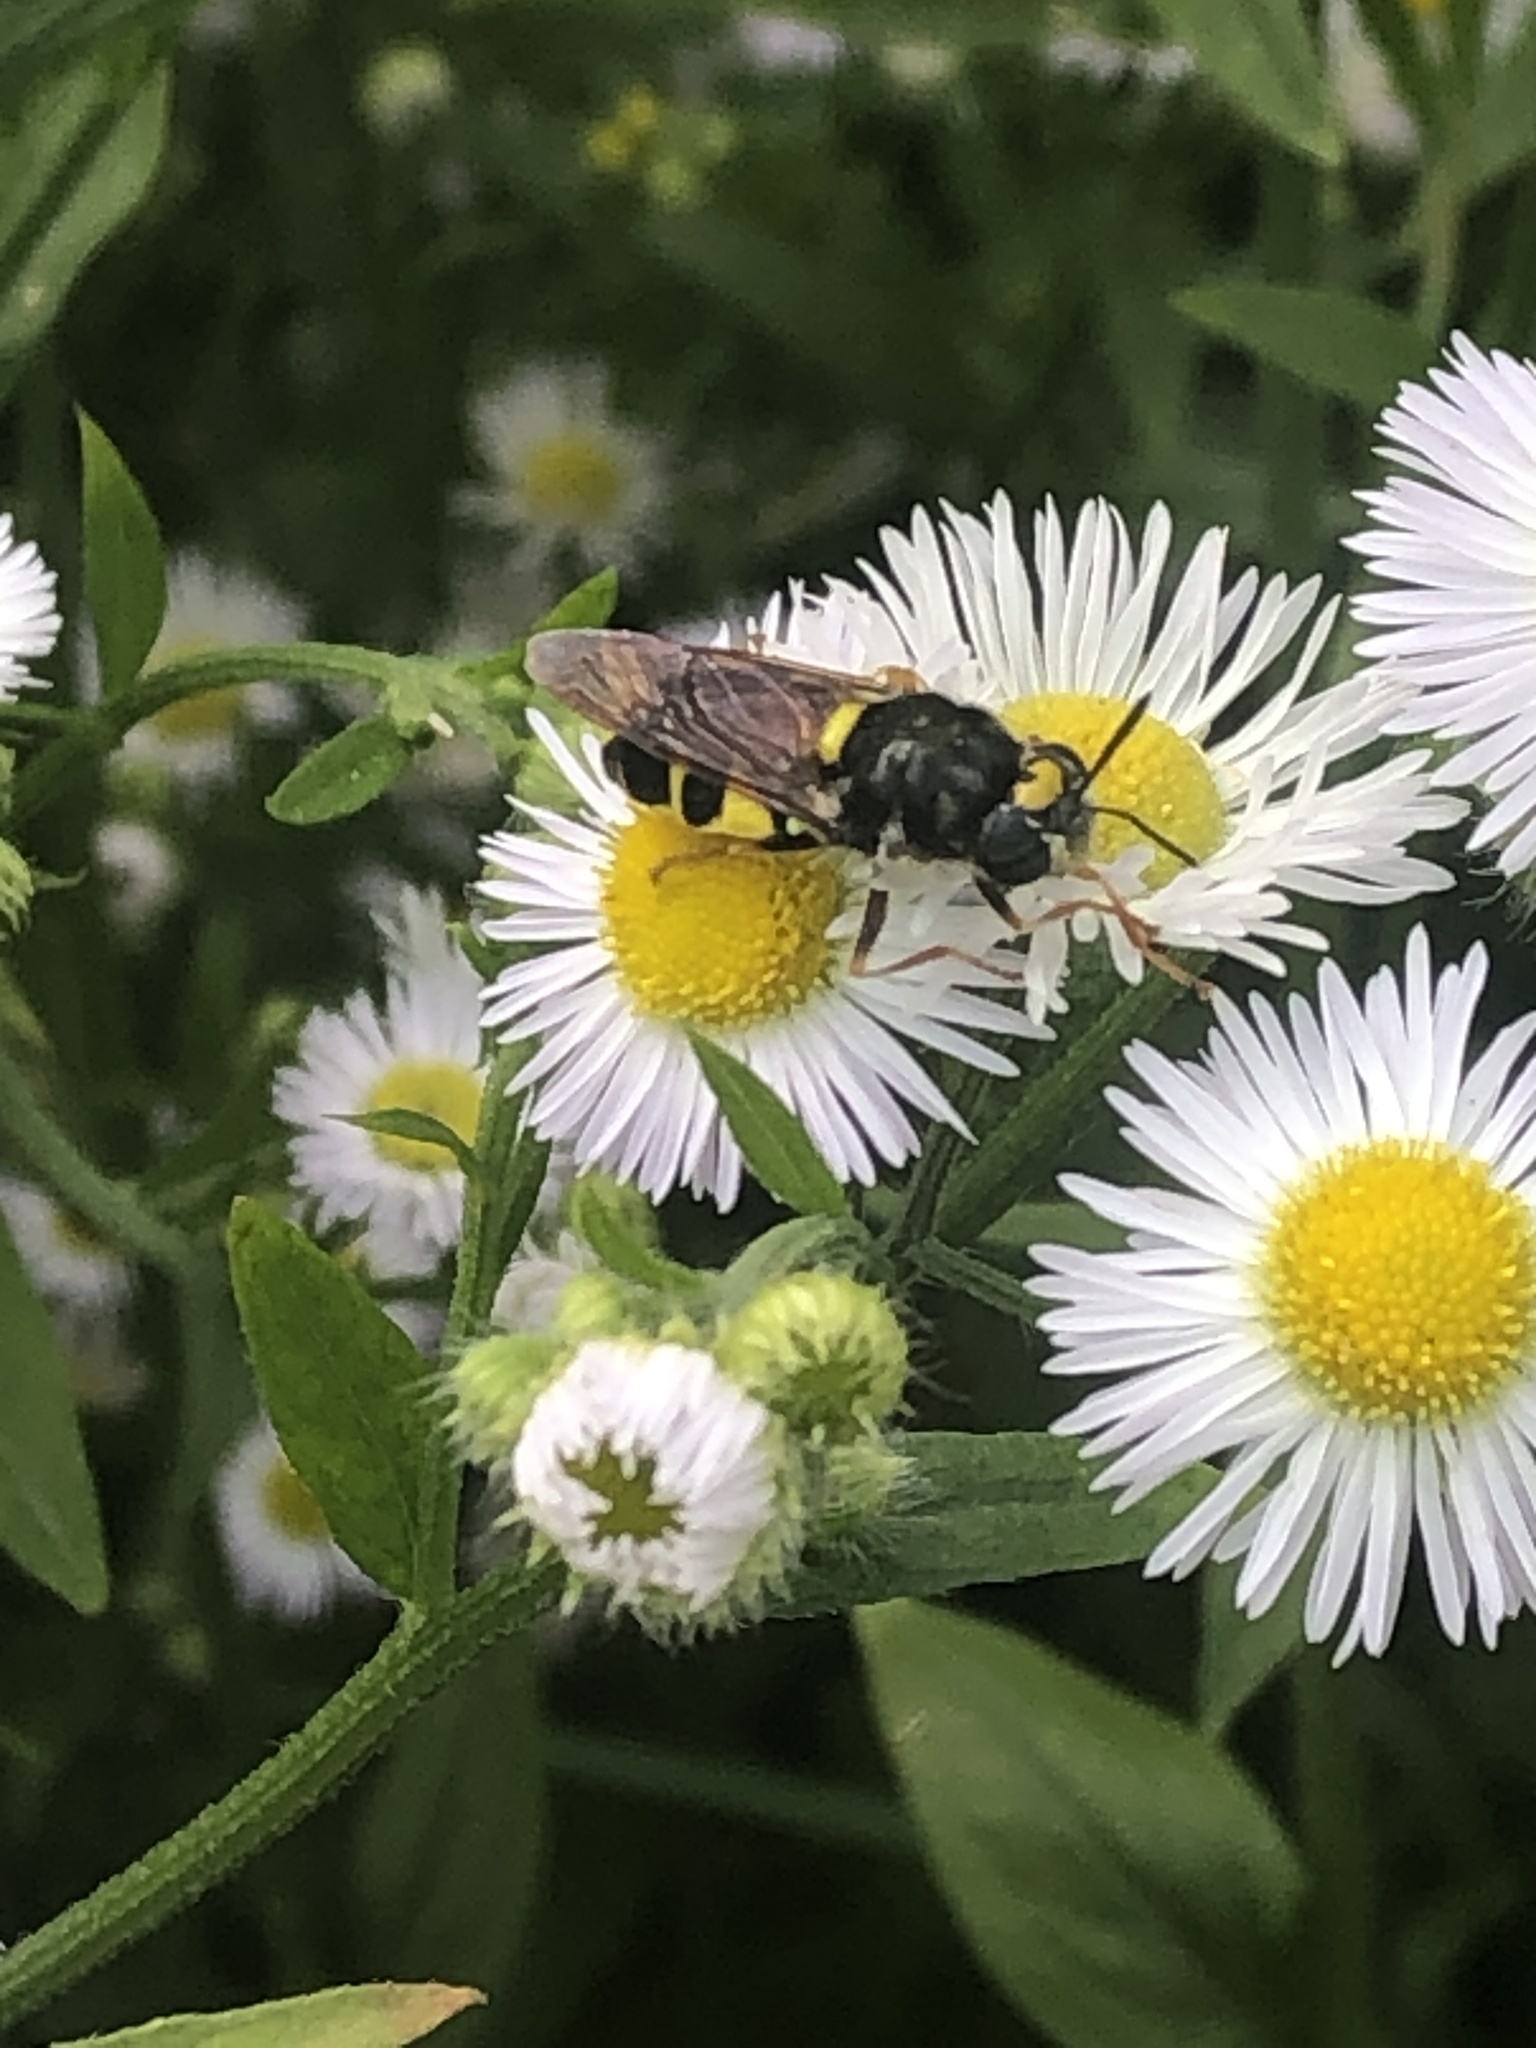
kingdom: Animalia
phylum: Arthropoda
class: Insecta
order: Diptera
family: Stratiomyidae
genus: Stratiomys
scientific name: Stratiomys norma
